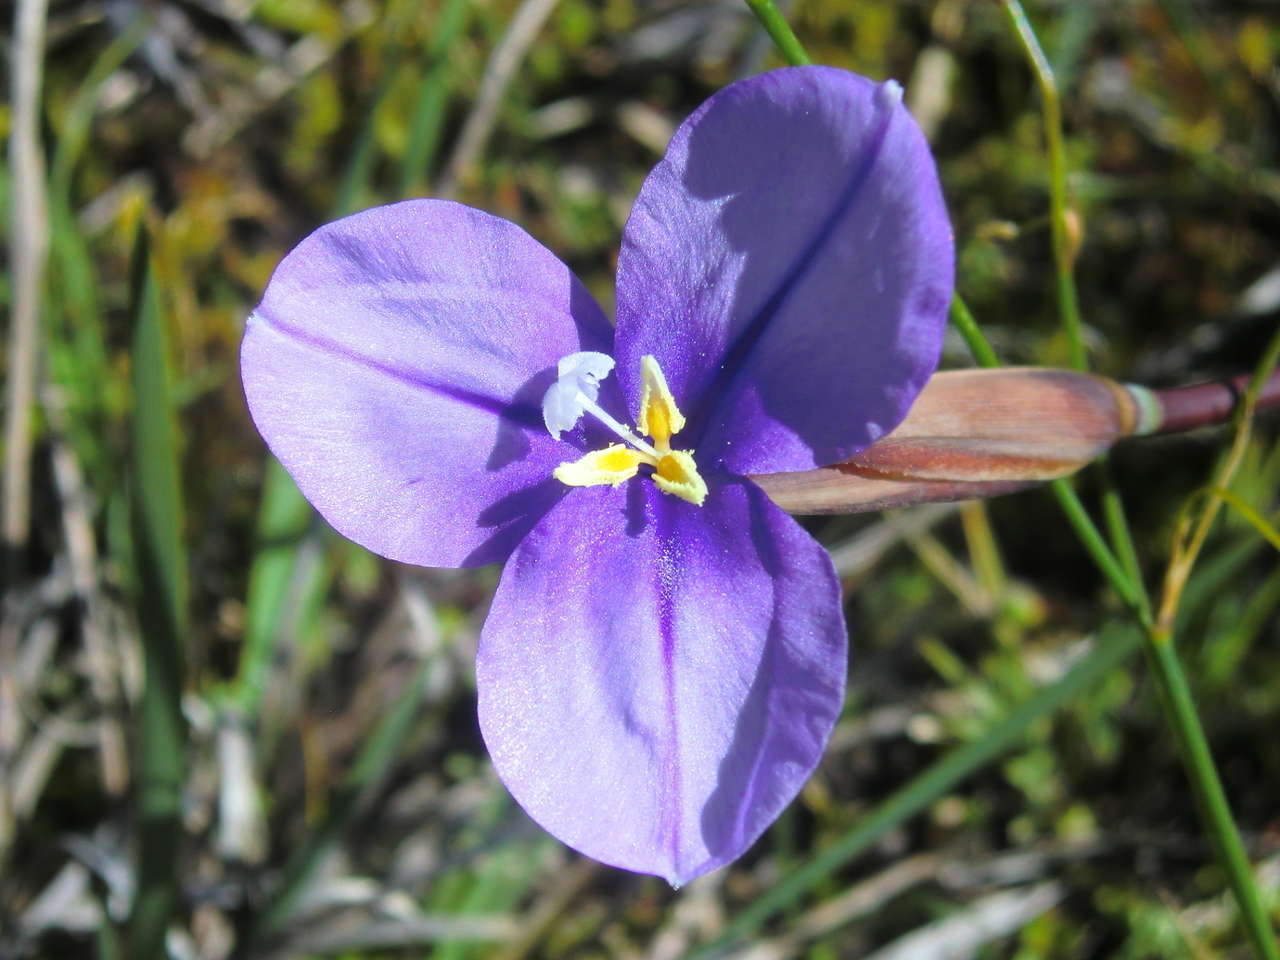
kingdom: Plantae
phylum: Tracheophyta
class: Liliopsida
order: Asparagales
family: Iridaceae
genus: Patersonia
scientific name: Patersonia occidentalis
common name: Long purple-flag
